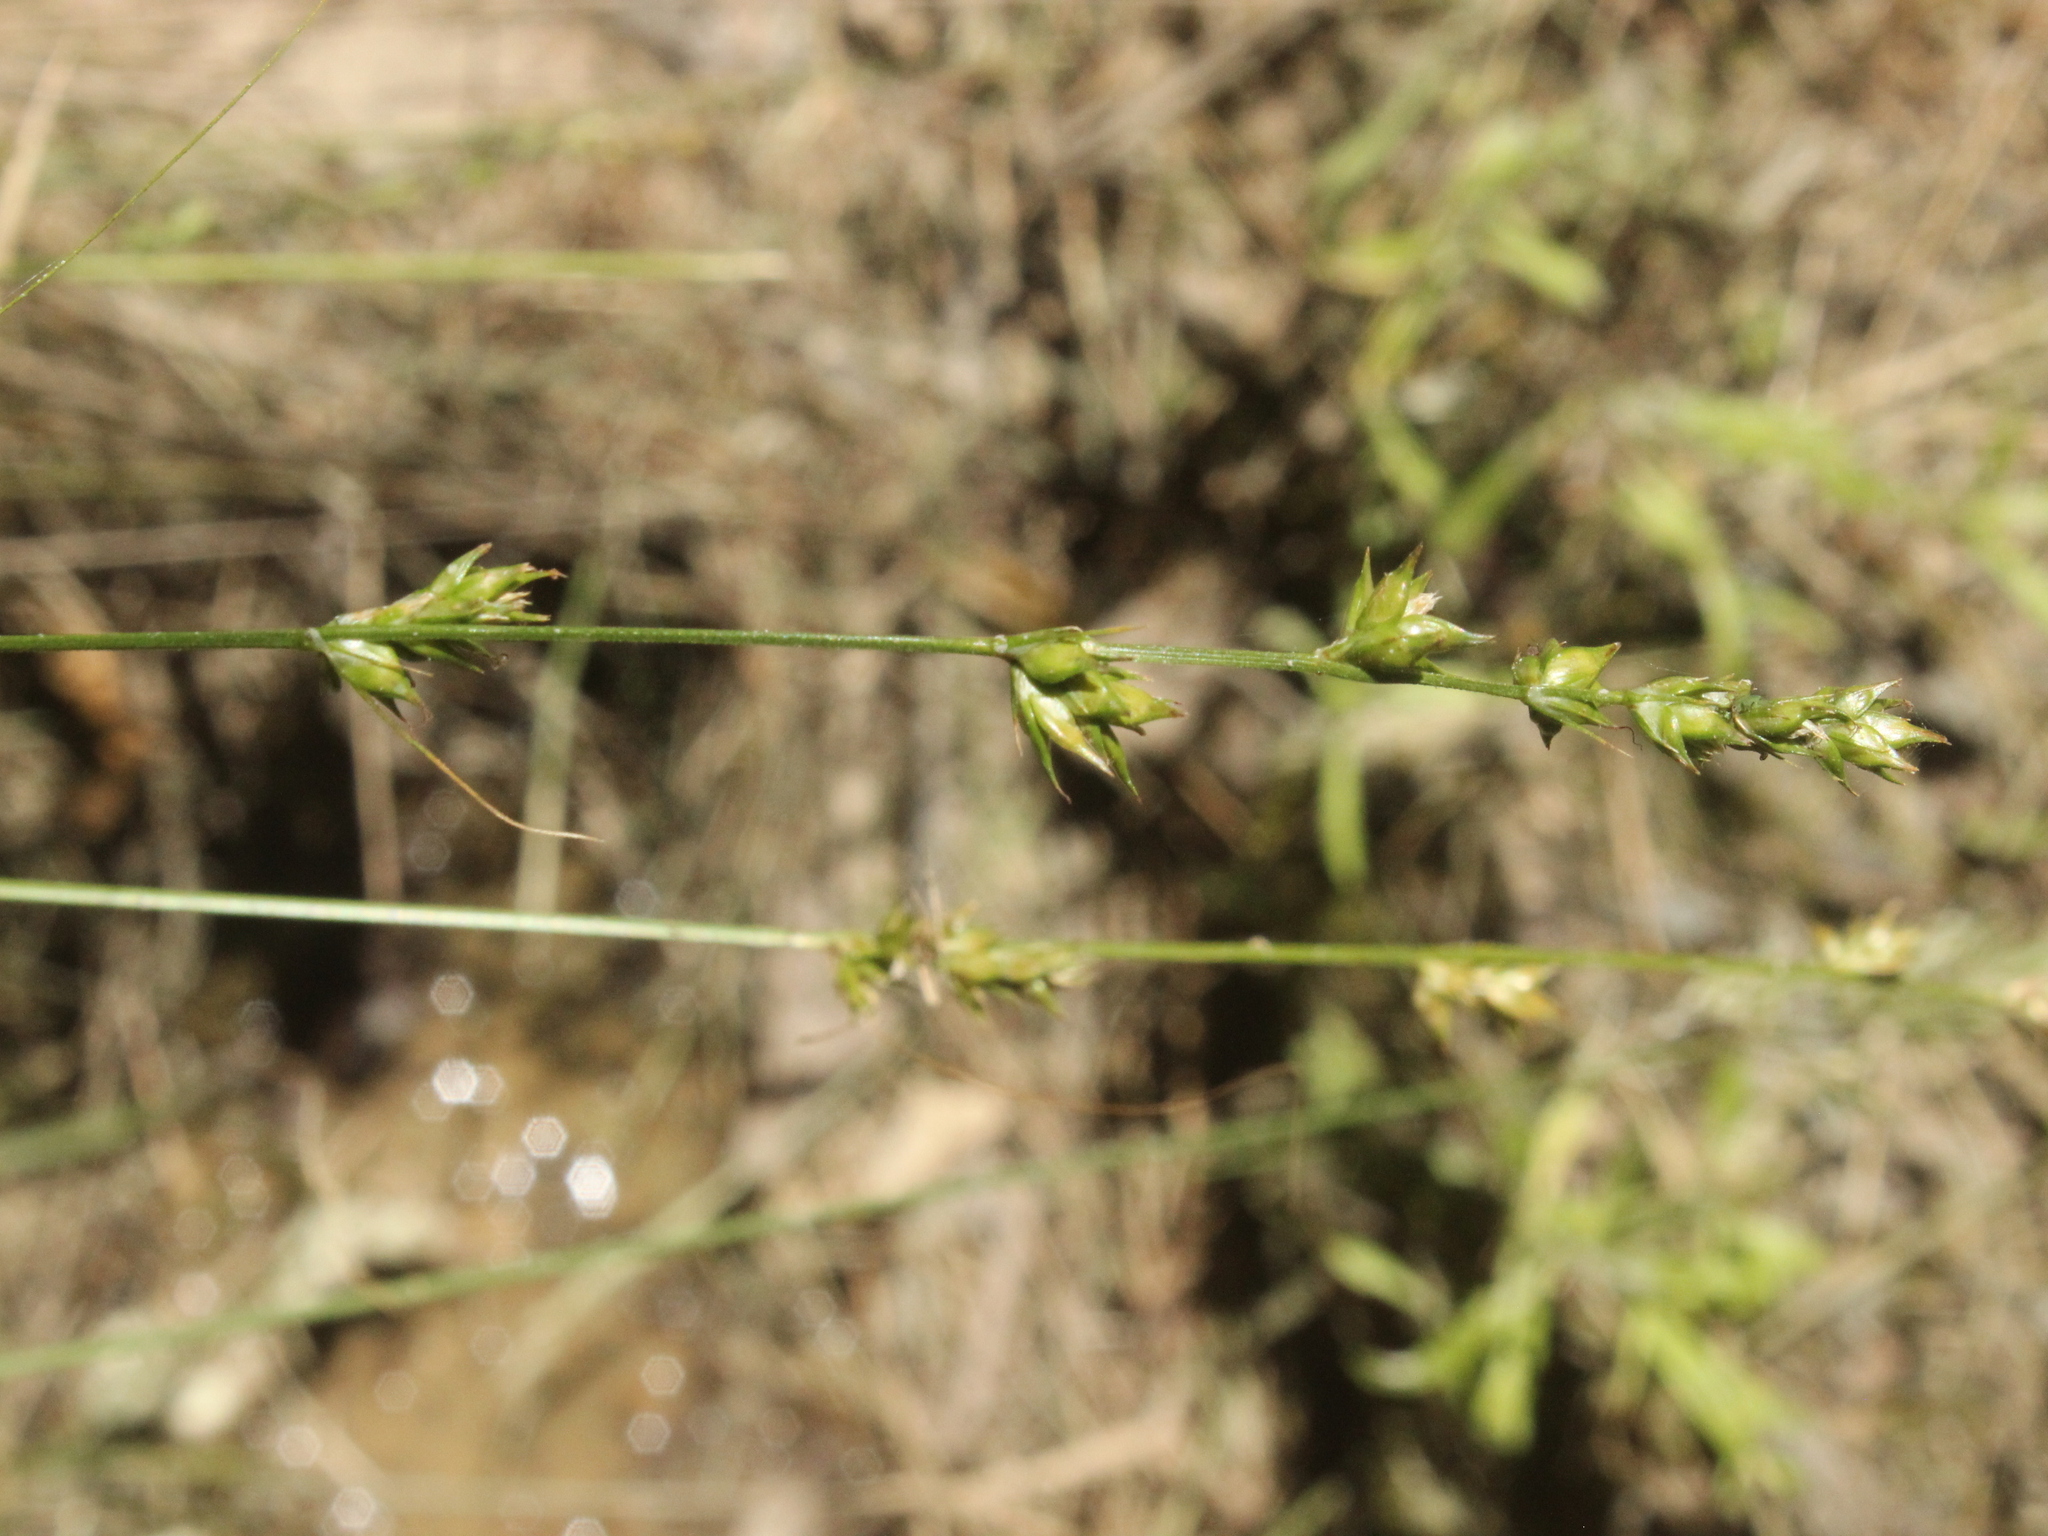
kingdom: Plantae
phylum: Tracheophyta
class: Liliopsida
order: Poales
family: Cyperaceae
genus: Carex
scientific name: Carex divulsa
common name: Grassland sedge
